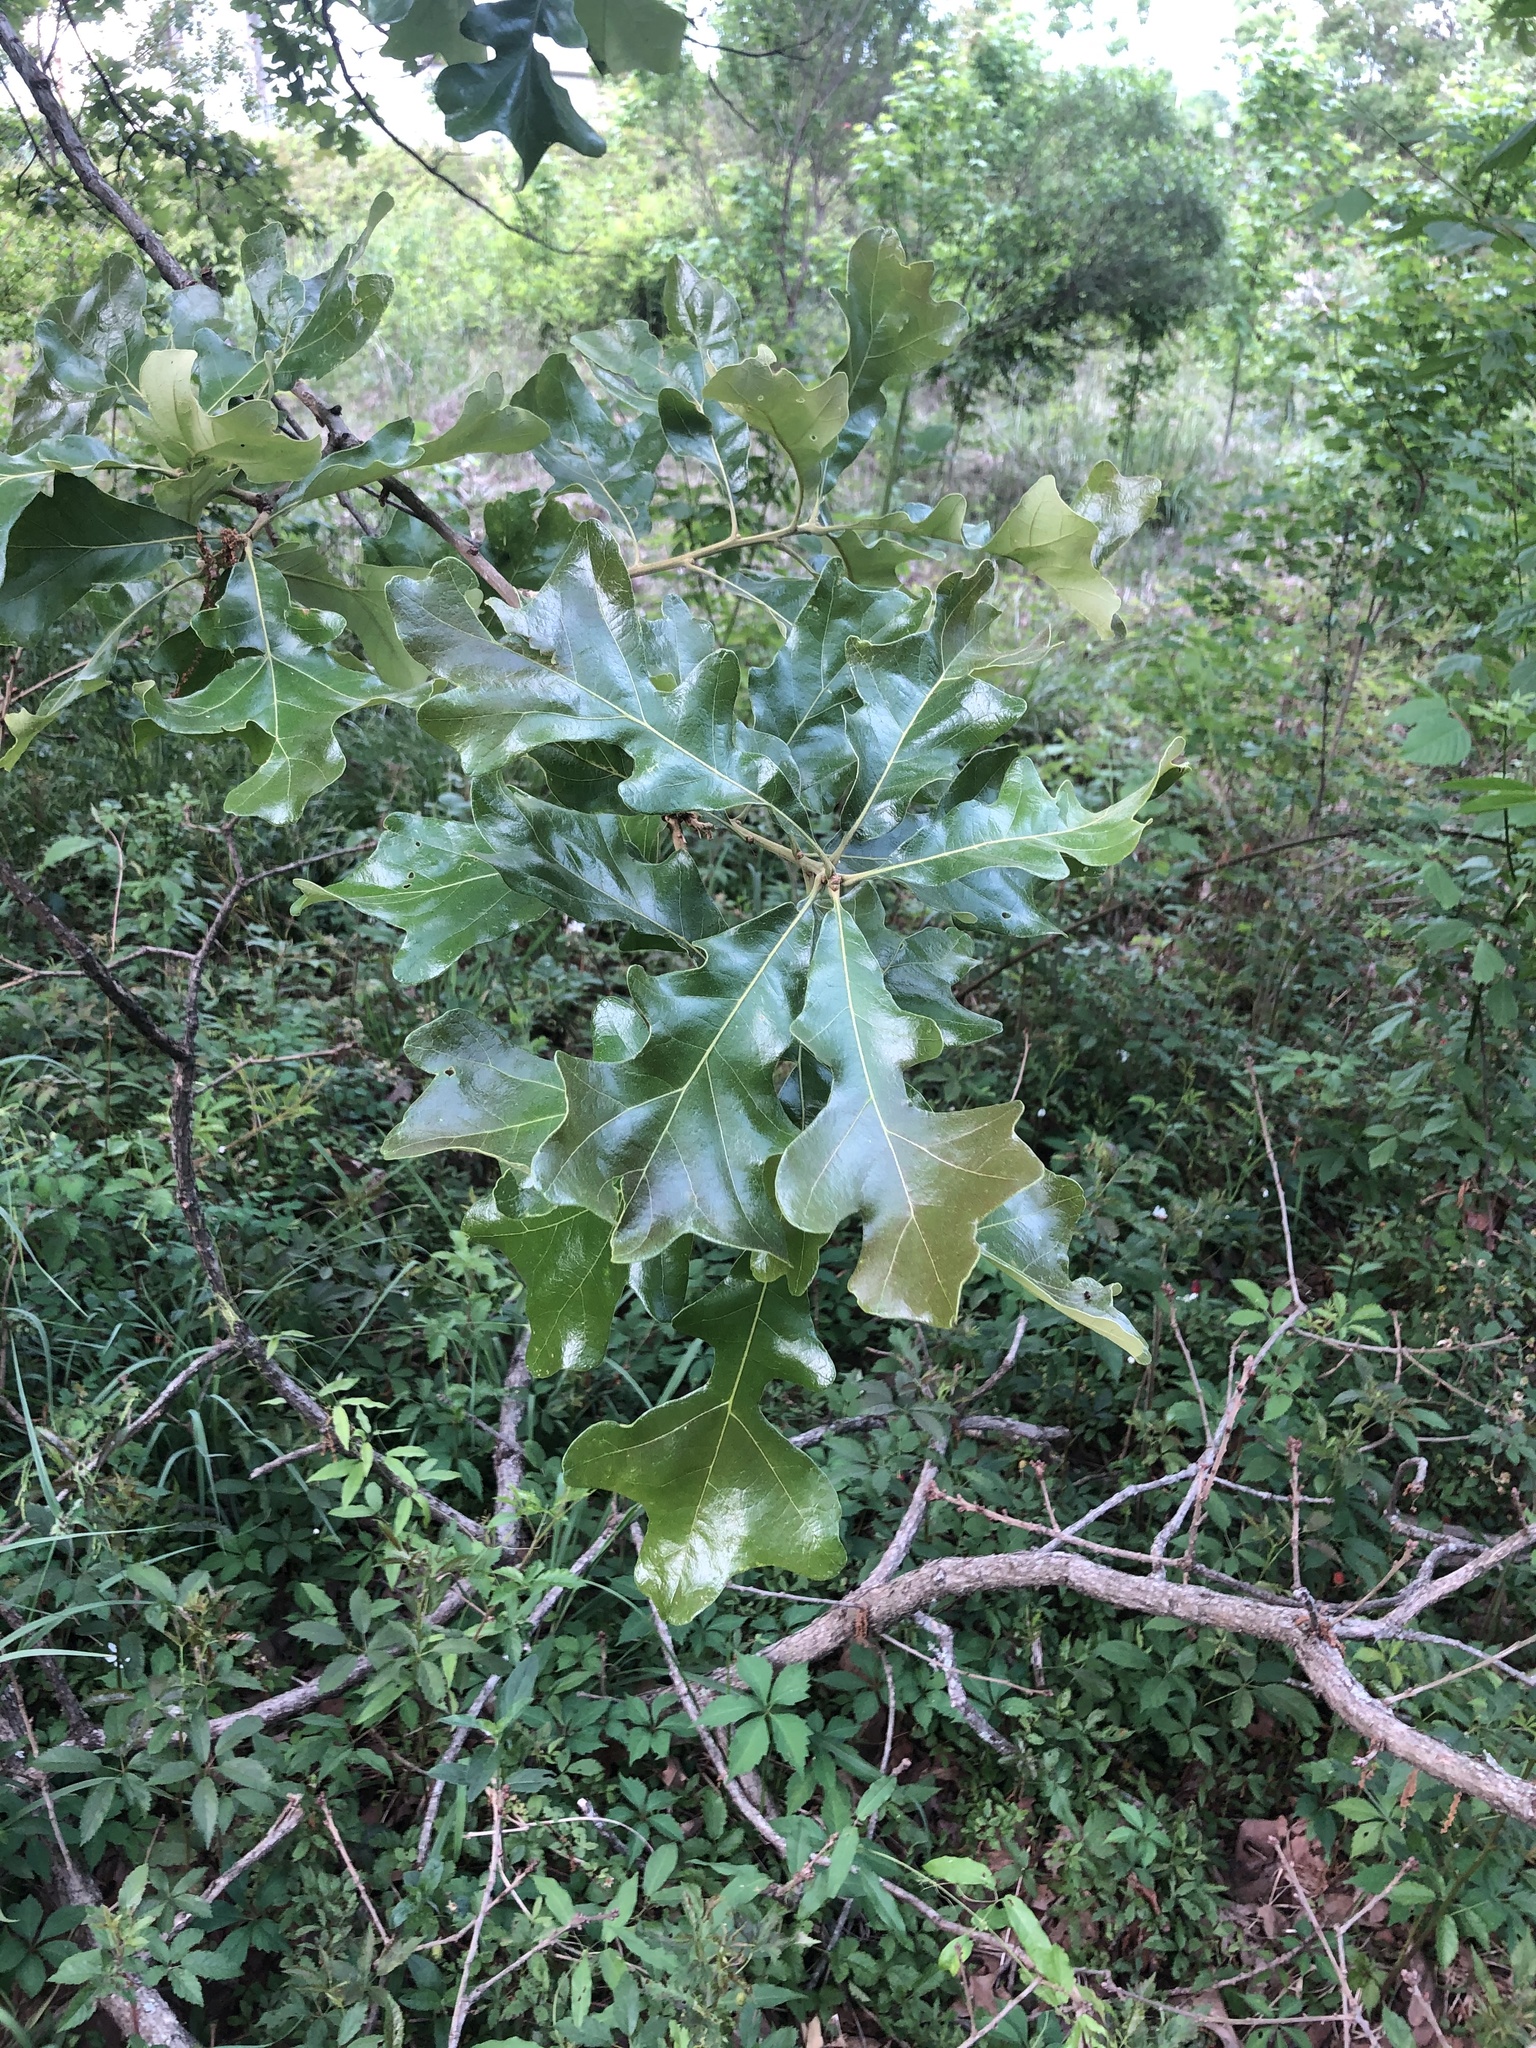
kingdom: Plantae
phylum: Tracheophyta
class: Magnoliopsida
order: Fagales
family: Fagaceae
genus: Quercus
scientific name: Quercus stellata
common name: Post oak
